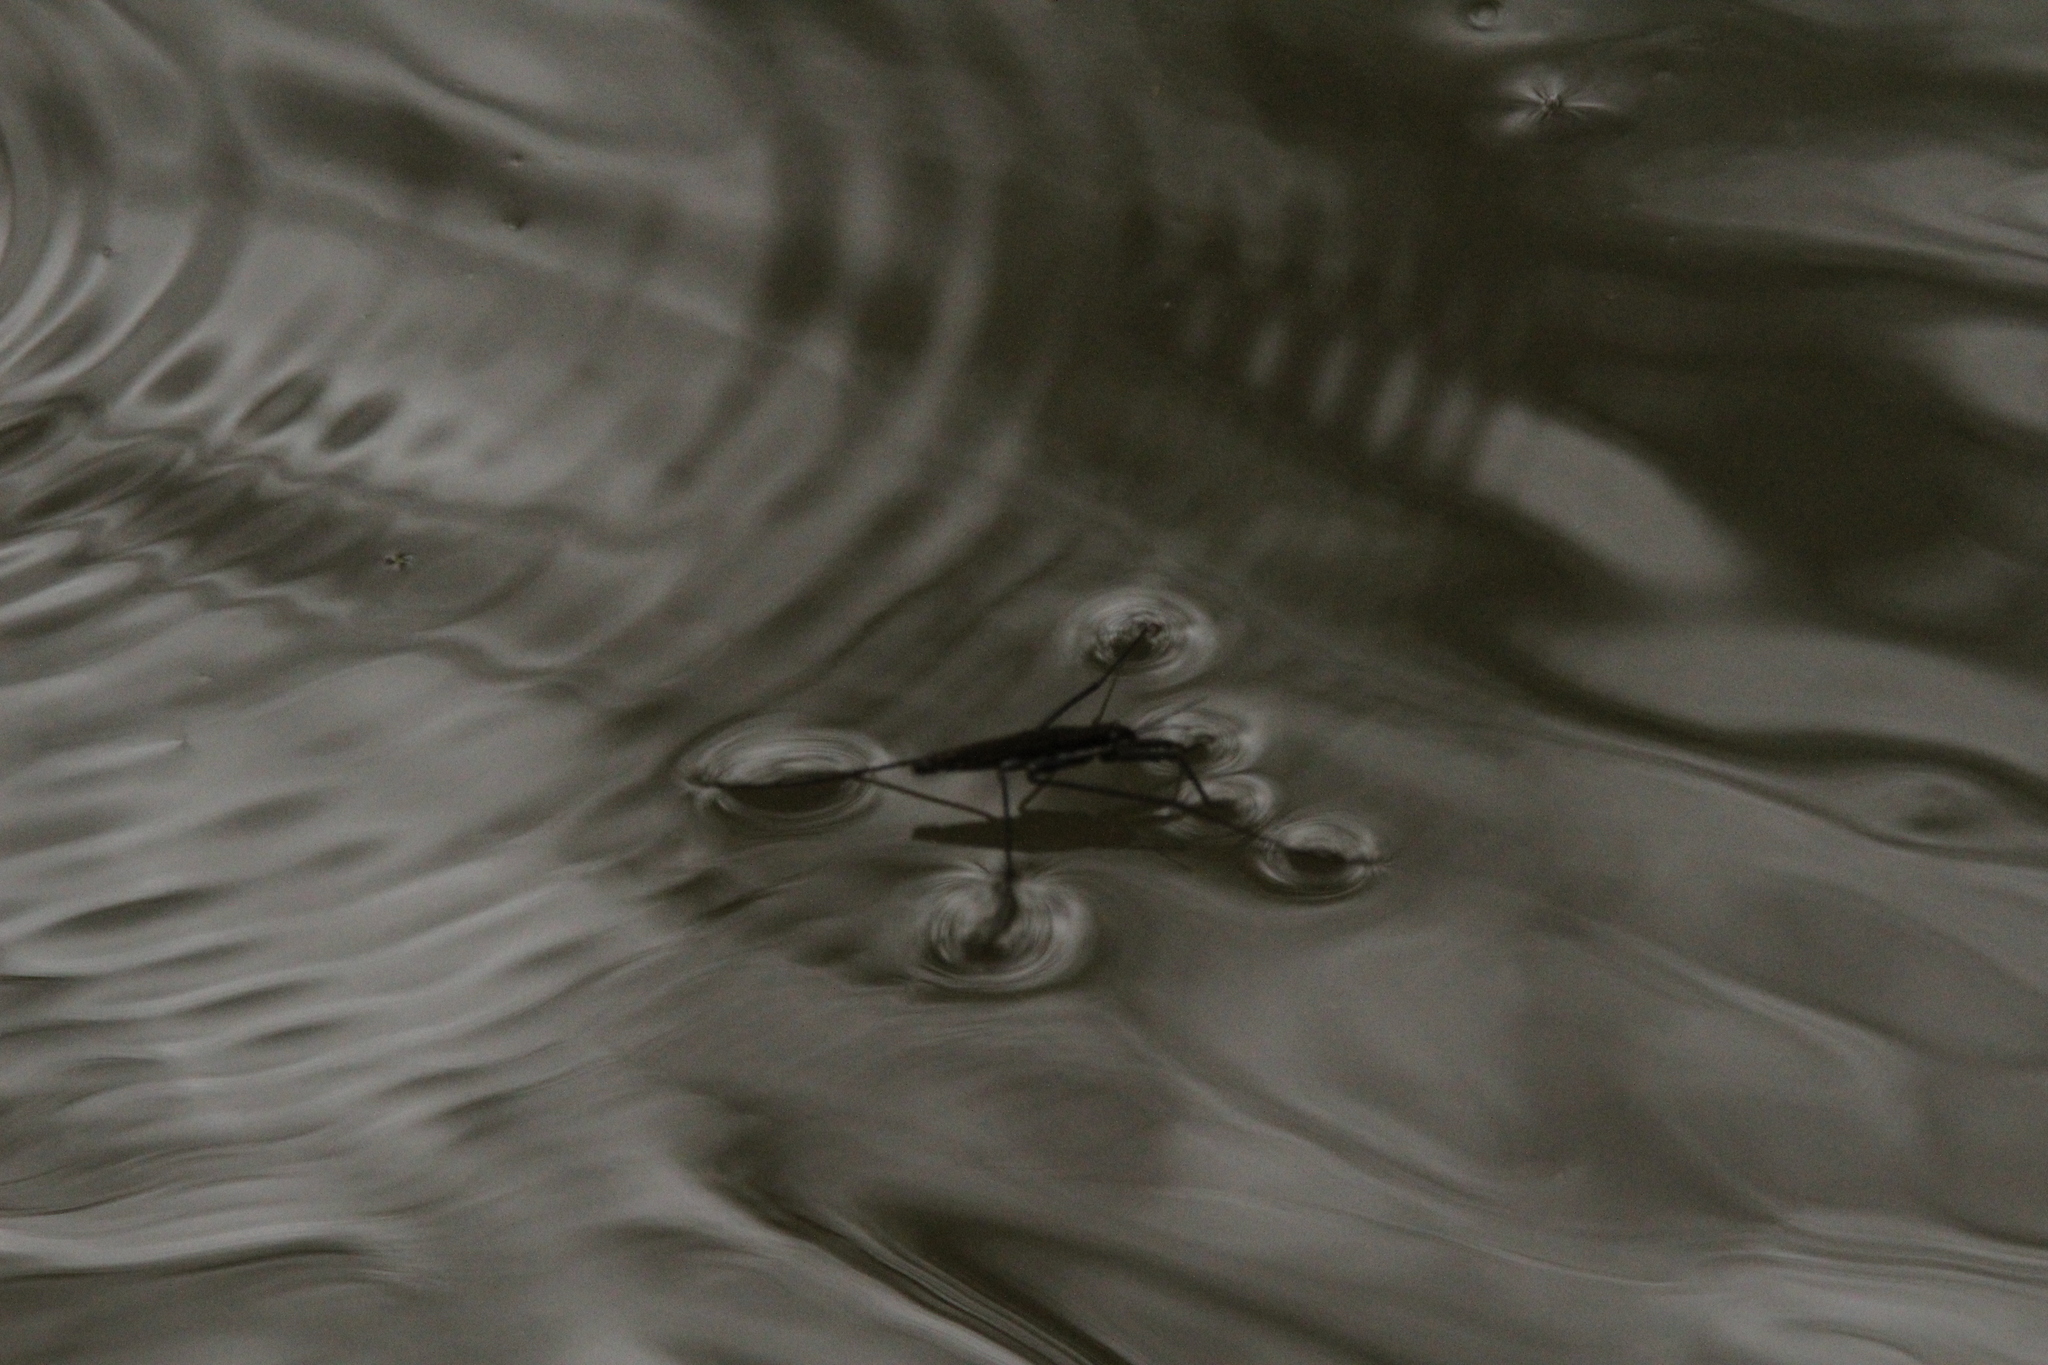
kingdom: Animalia
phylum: Arthropoda
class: Insecta
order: Hemiptera
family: Gerridae
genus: Aquarius
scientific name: Aquarius remigis
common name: Common water strider
